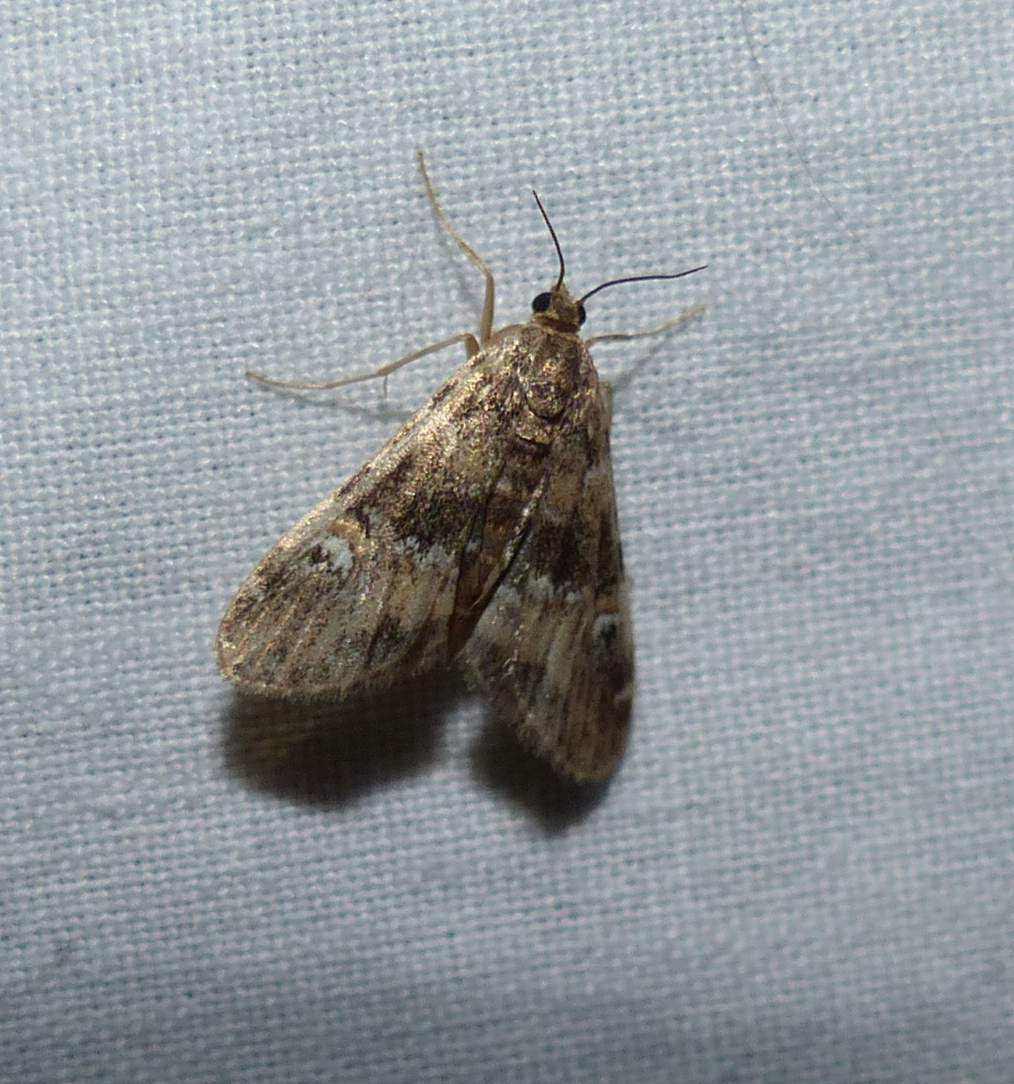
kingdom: Animalia
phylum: Arthropoda
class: Insecta
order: Lepidoptera
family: Crambidae
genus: Elophila
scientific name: Elophila obliteralis
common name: Waterlily leafcutter moth
